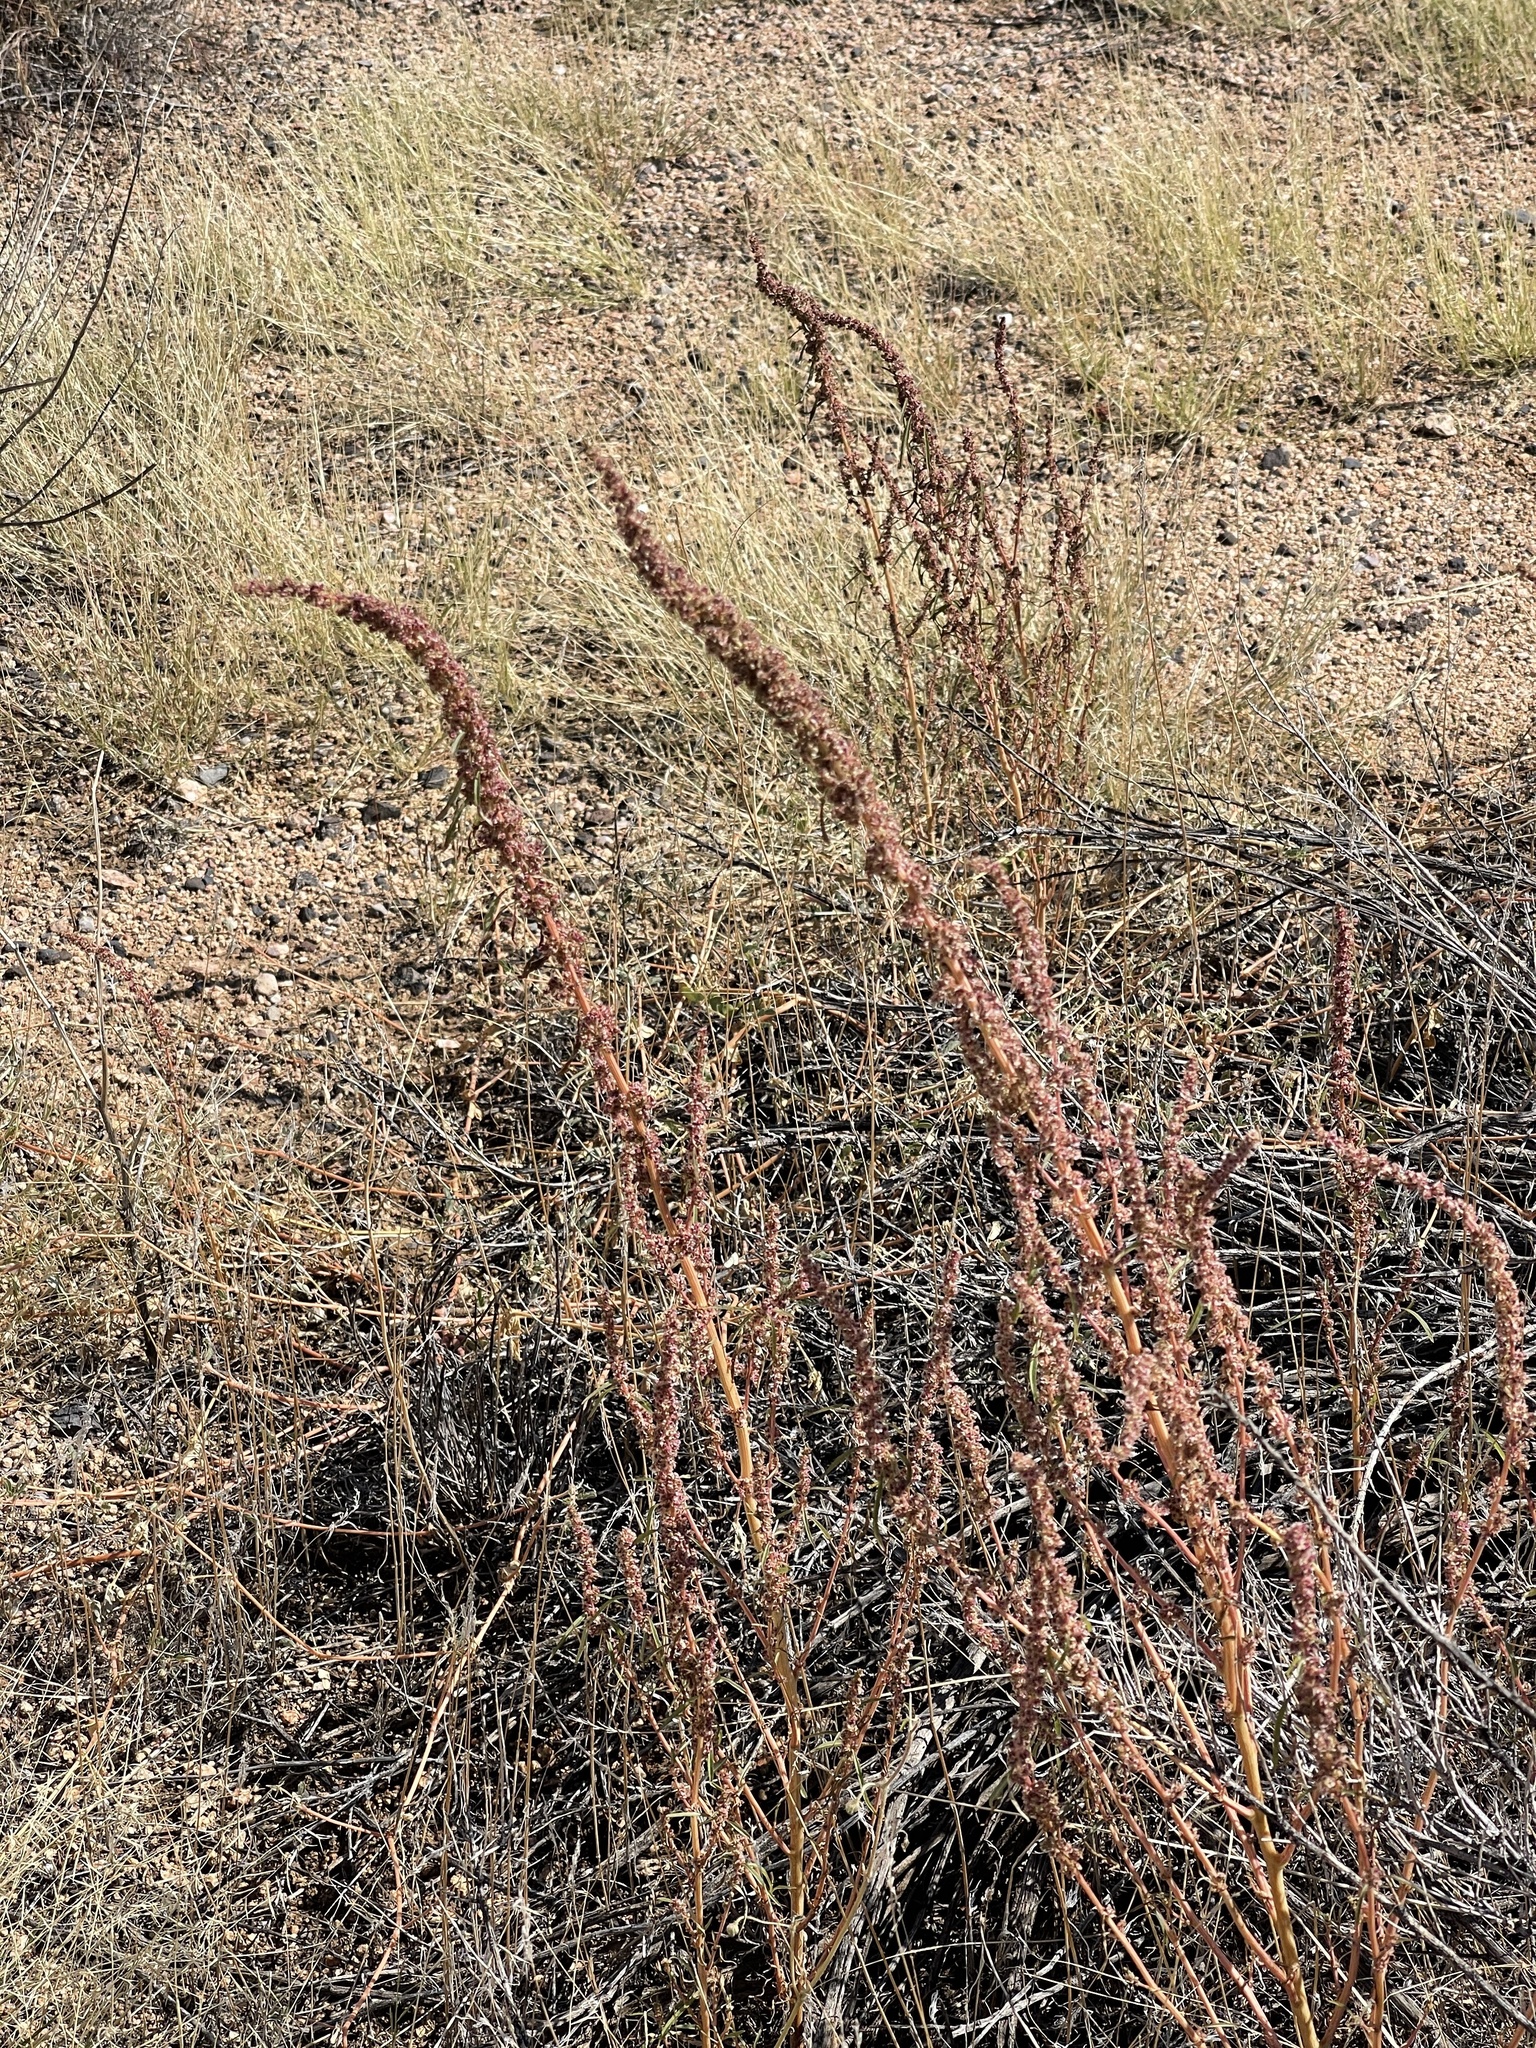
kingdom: Plantae
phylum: Tracheophyta
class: Magnoliopsida
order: Caryophyllales
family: Amaranthaceae
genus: Amaranthus
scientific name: Amaranthus fimbriatus
